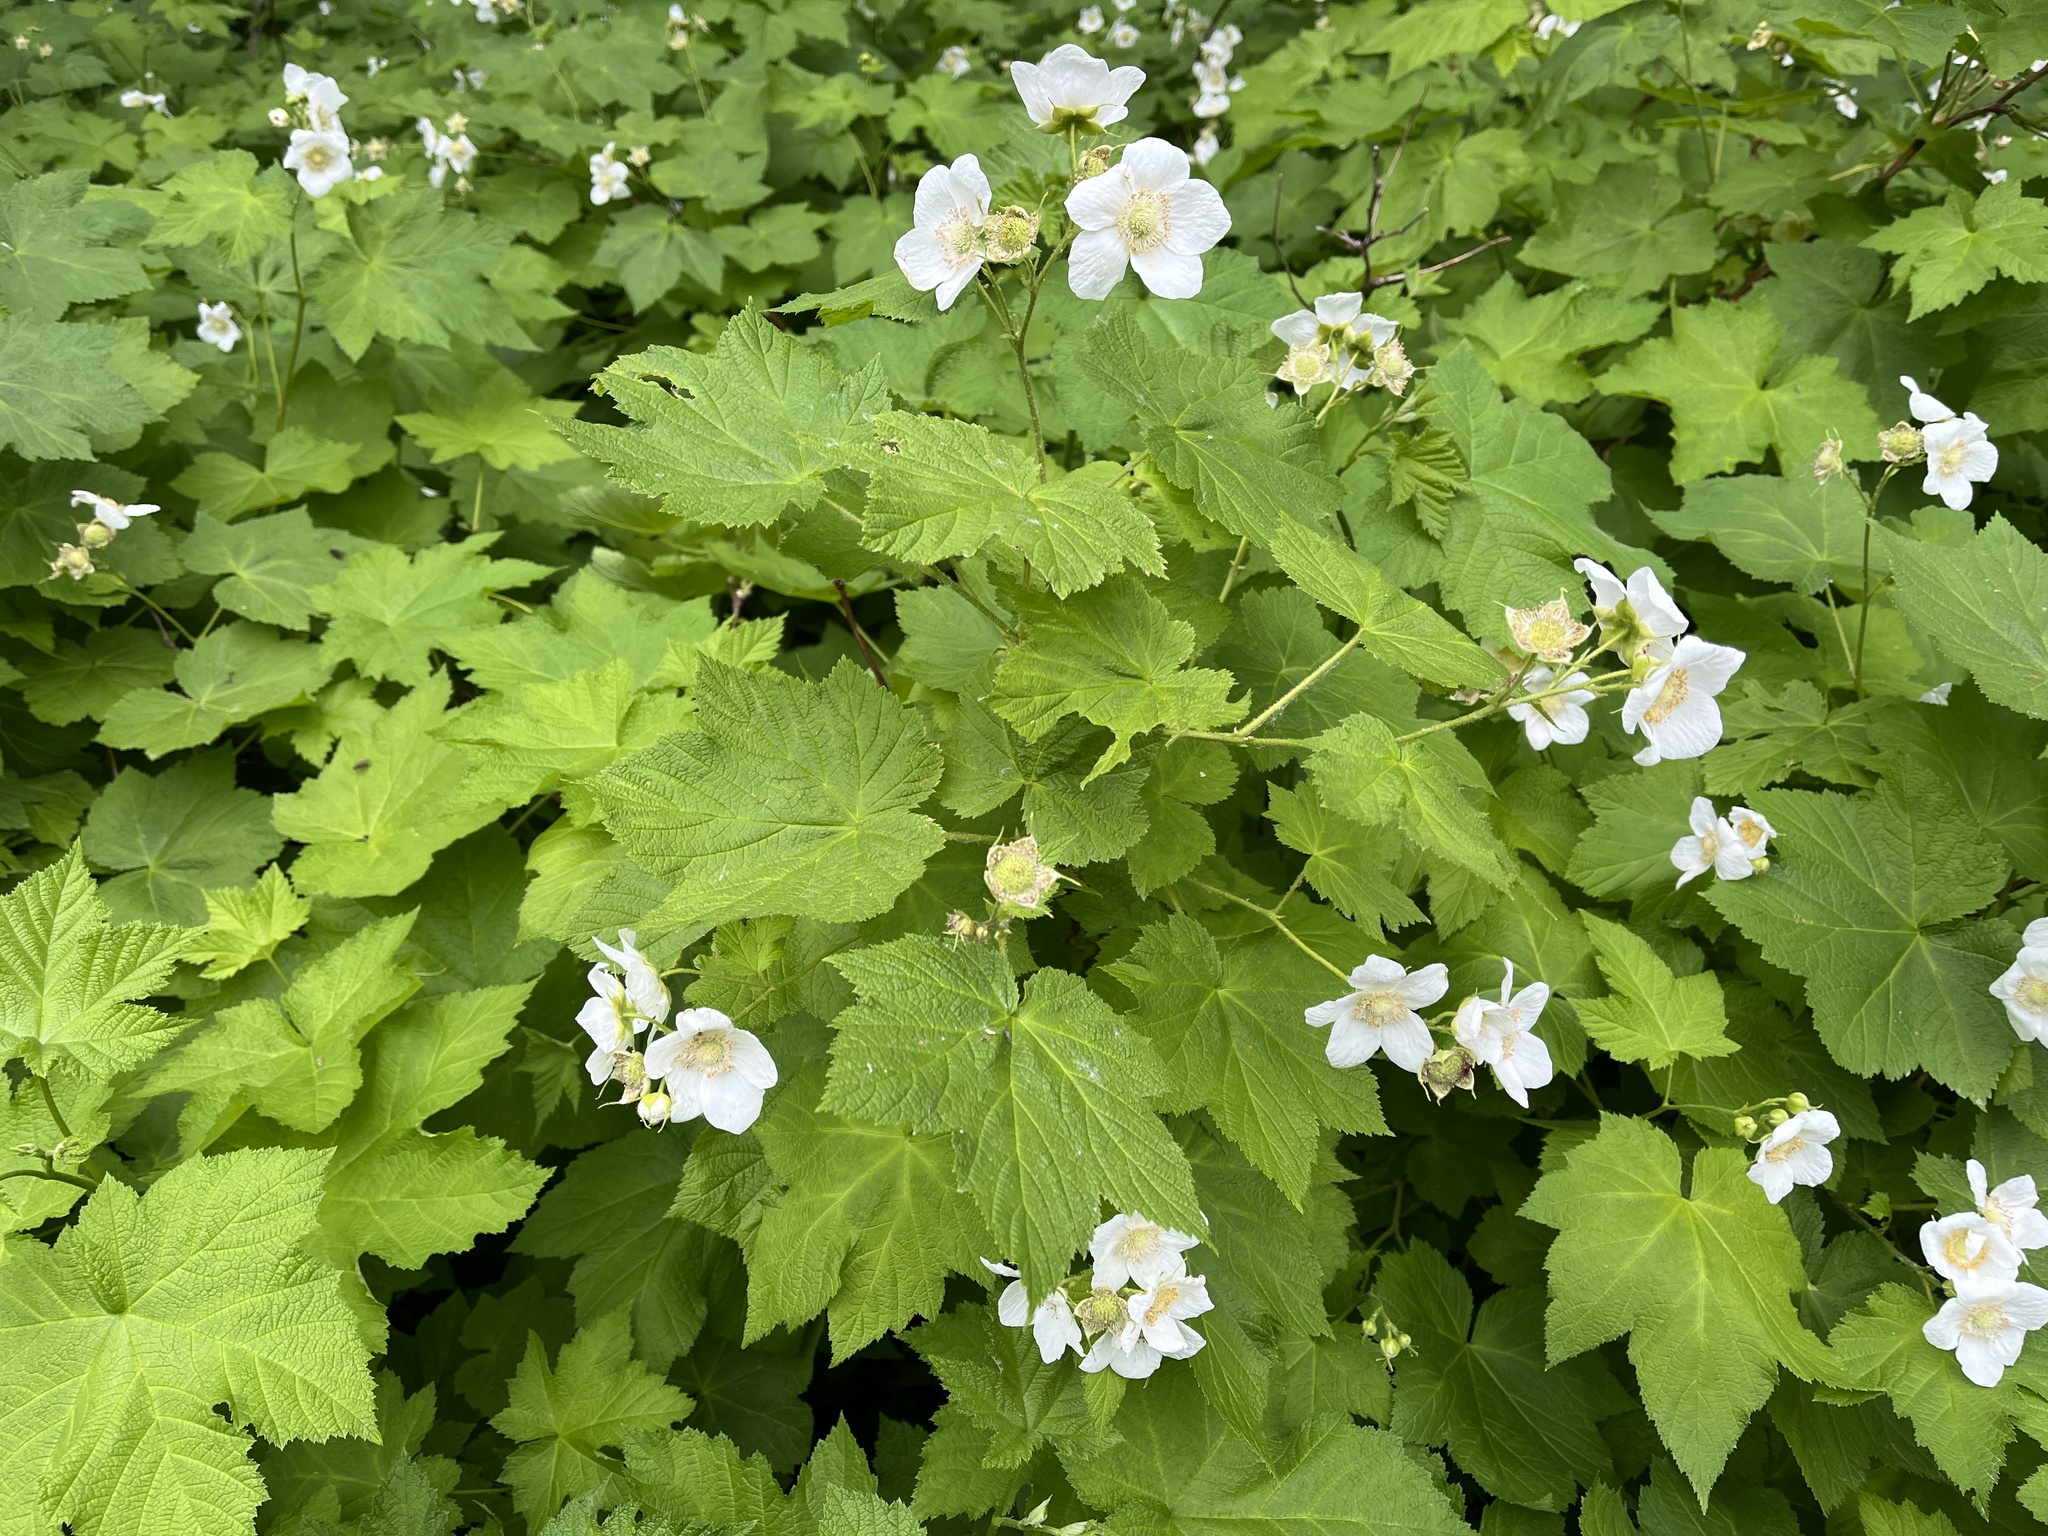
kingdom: Plantae
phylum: Tracheophyta
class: Magnoliopsida
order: Rosales
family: Rosaceae
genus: Rubus
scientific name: Rubus parviflorus
